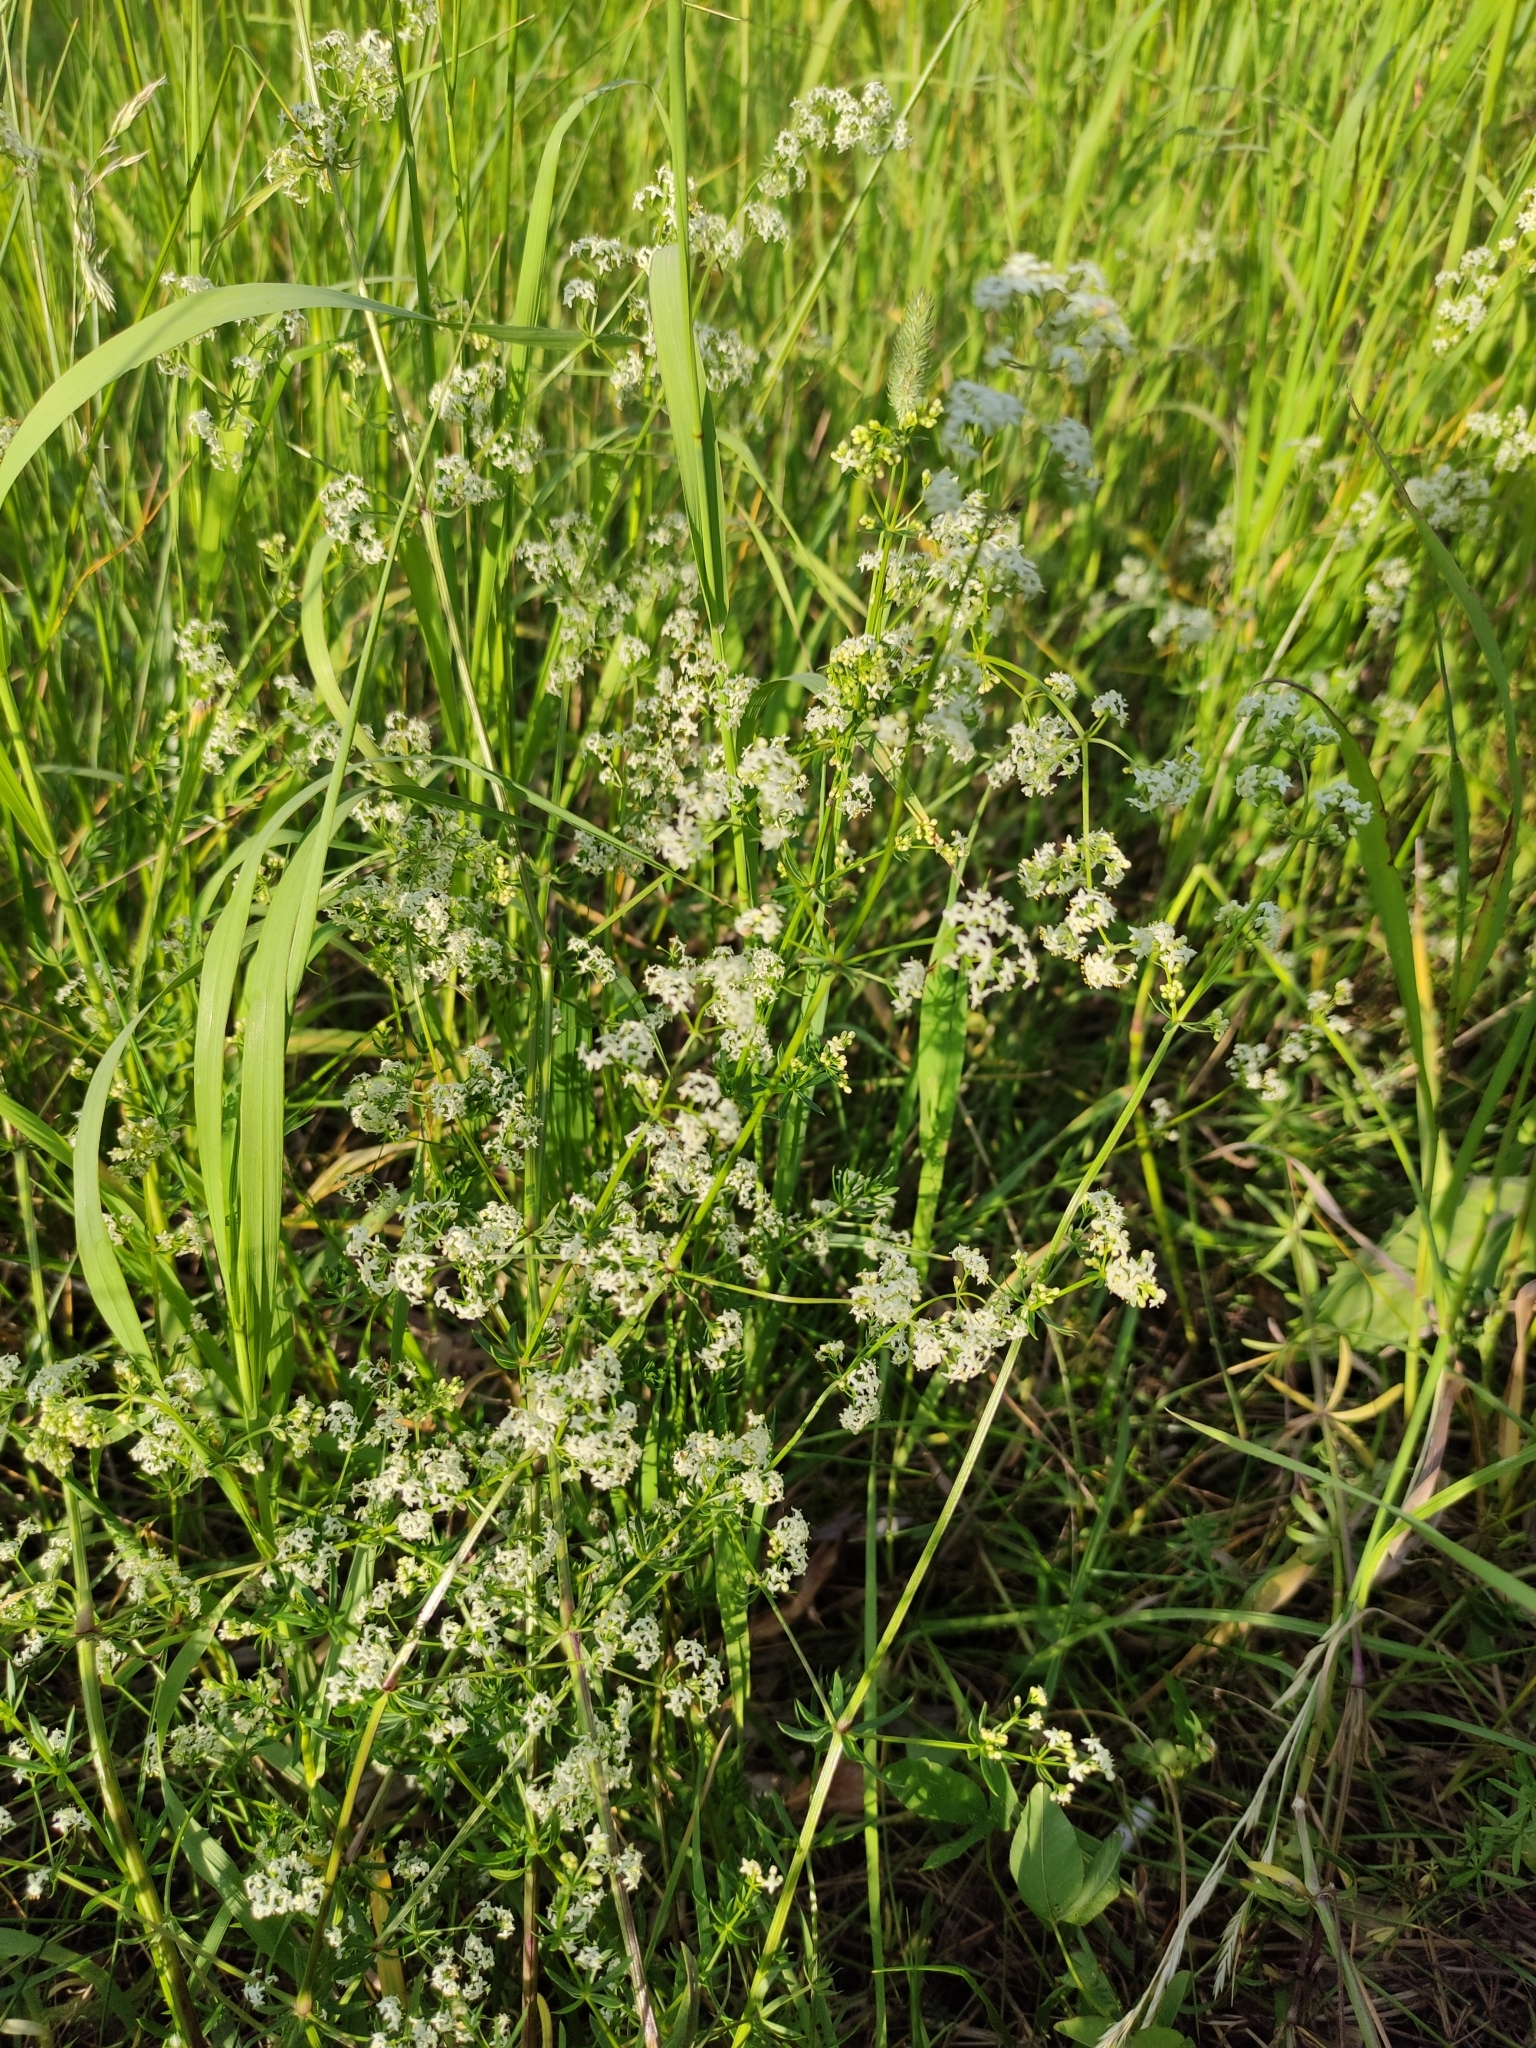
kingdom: Plantae
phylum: Tracheophyta
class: Magnoliopsida
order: Gentianales
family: Rubiaceae
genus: Galium
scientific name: Galium mollugo
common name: Hedge bedstraw
